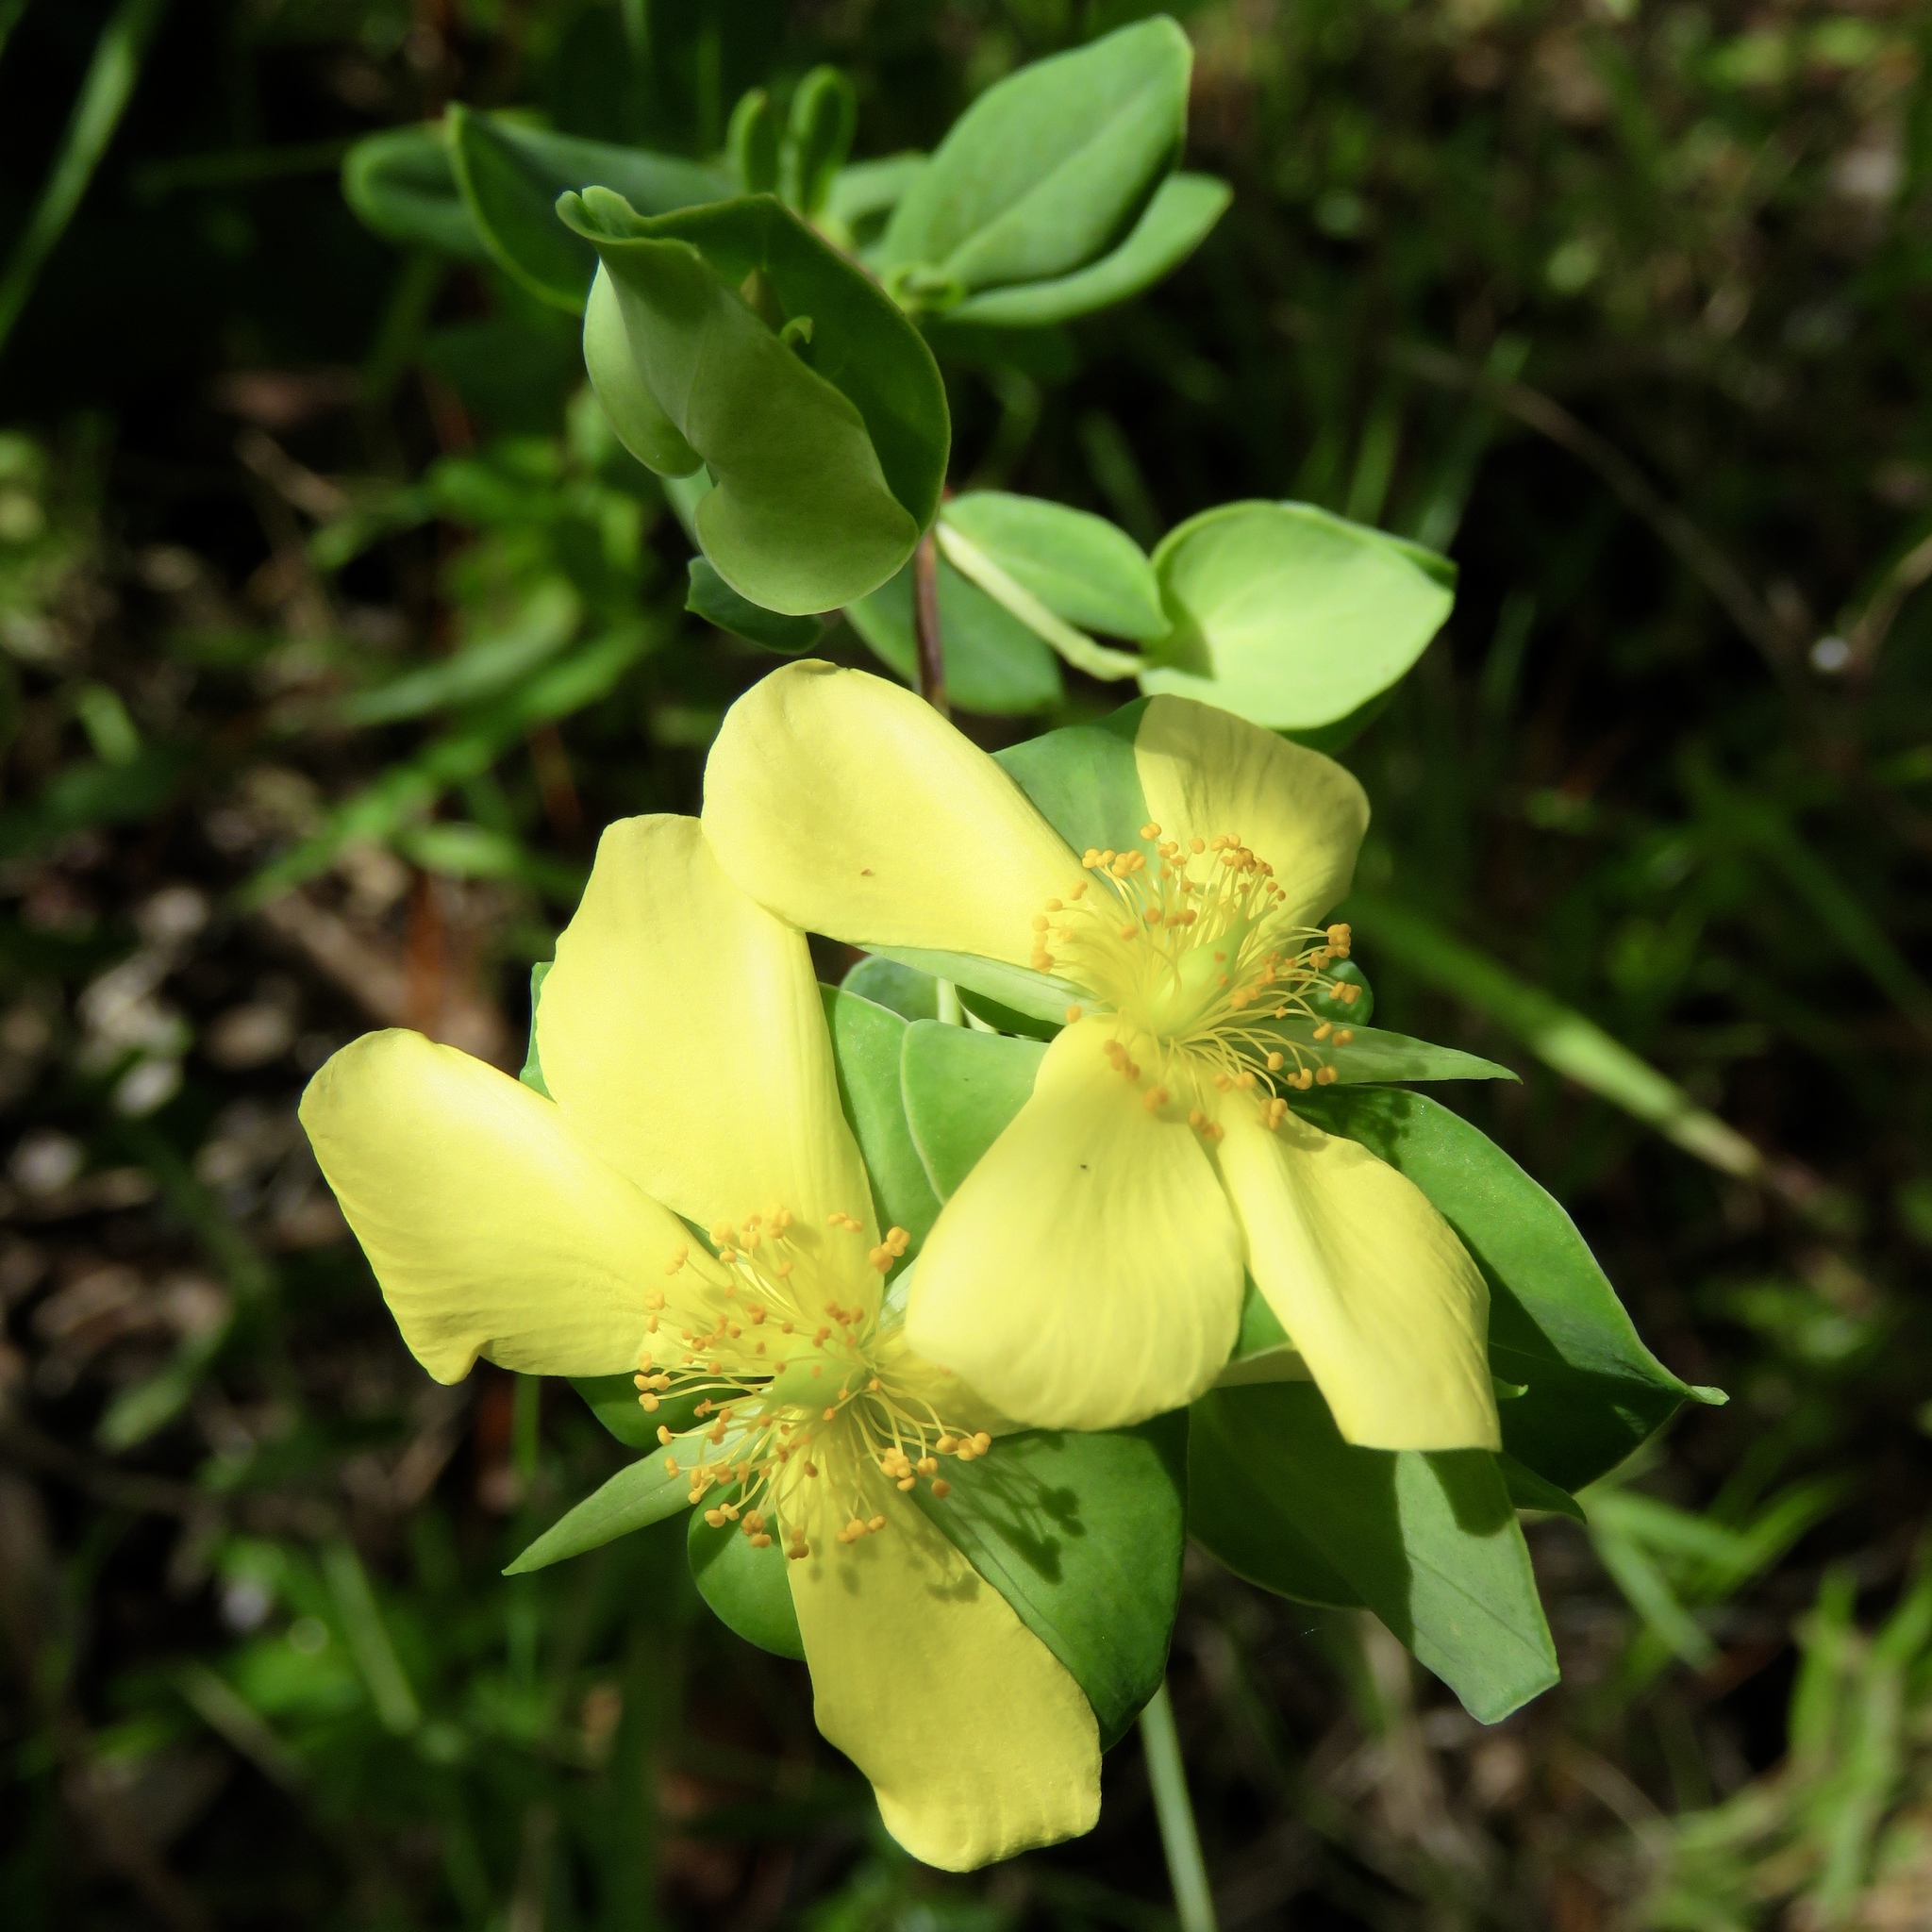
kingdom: Plantae
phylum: Tracheophyta
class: Magnoliopsida
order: Malpighiales
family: Hypericaceae
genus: Hypericum
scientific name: Hypericum crux-andreae
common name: St.-peter's-wort
